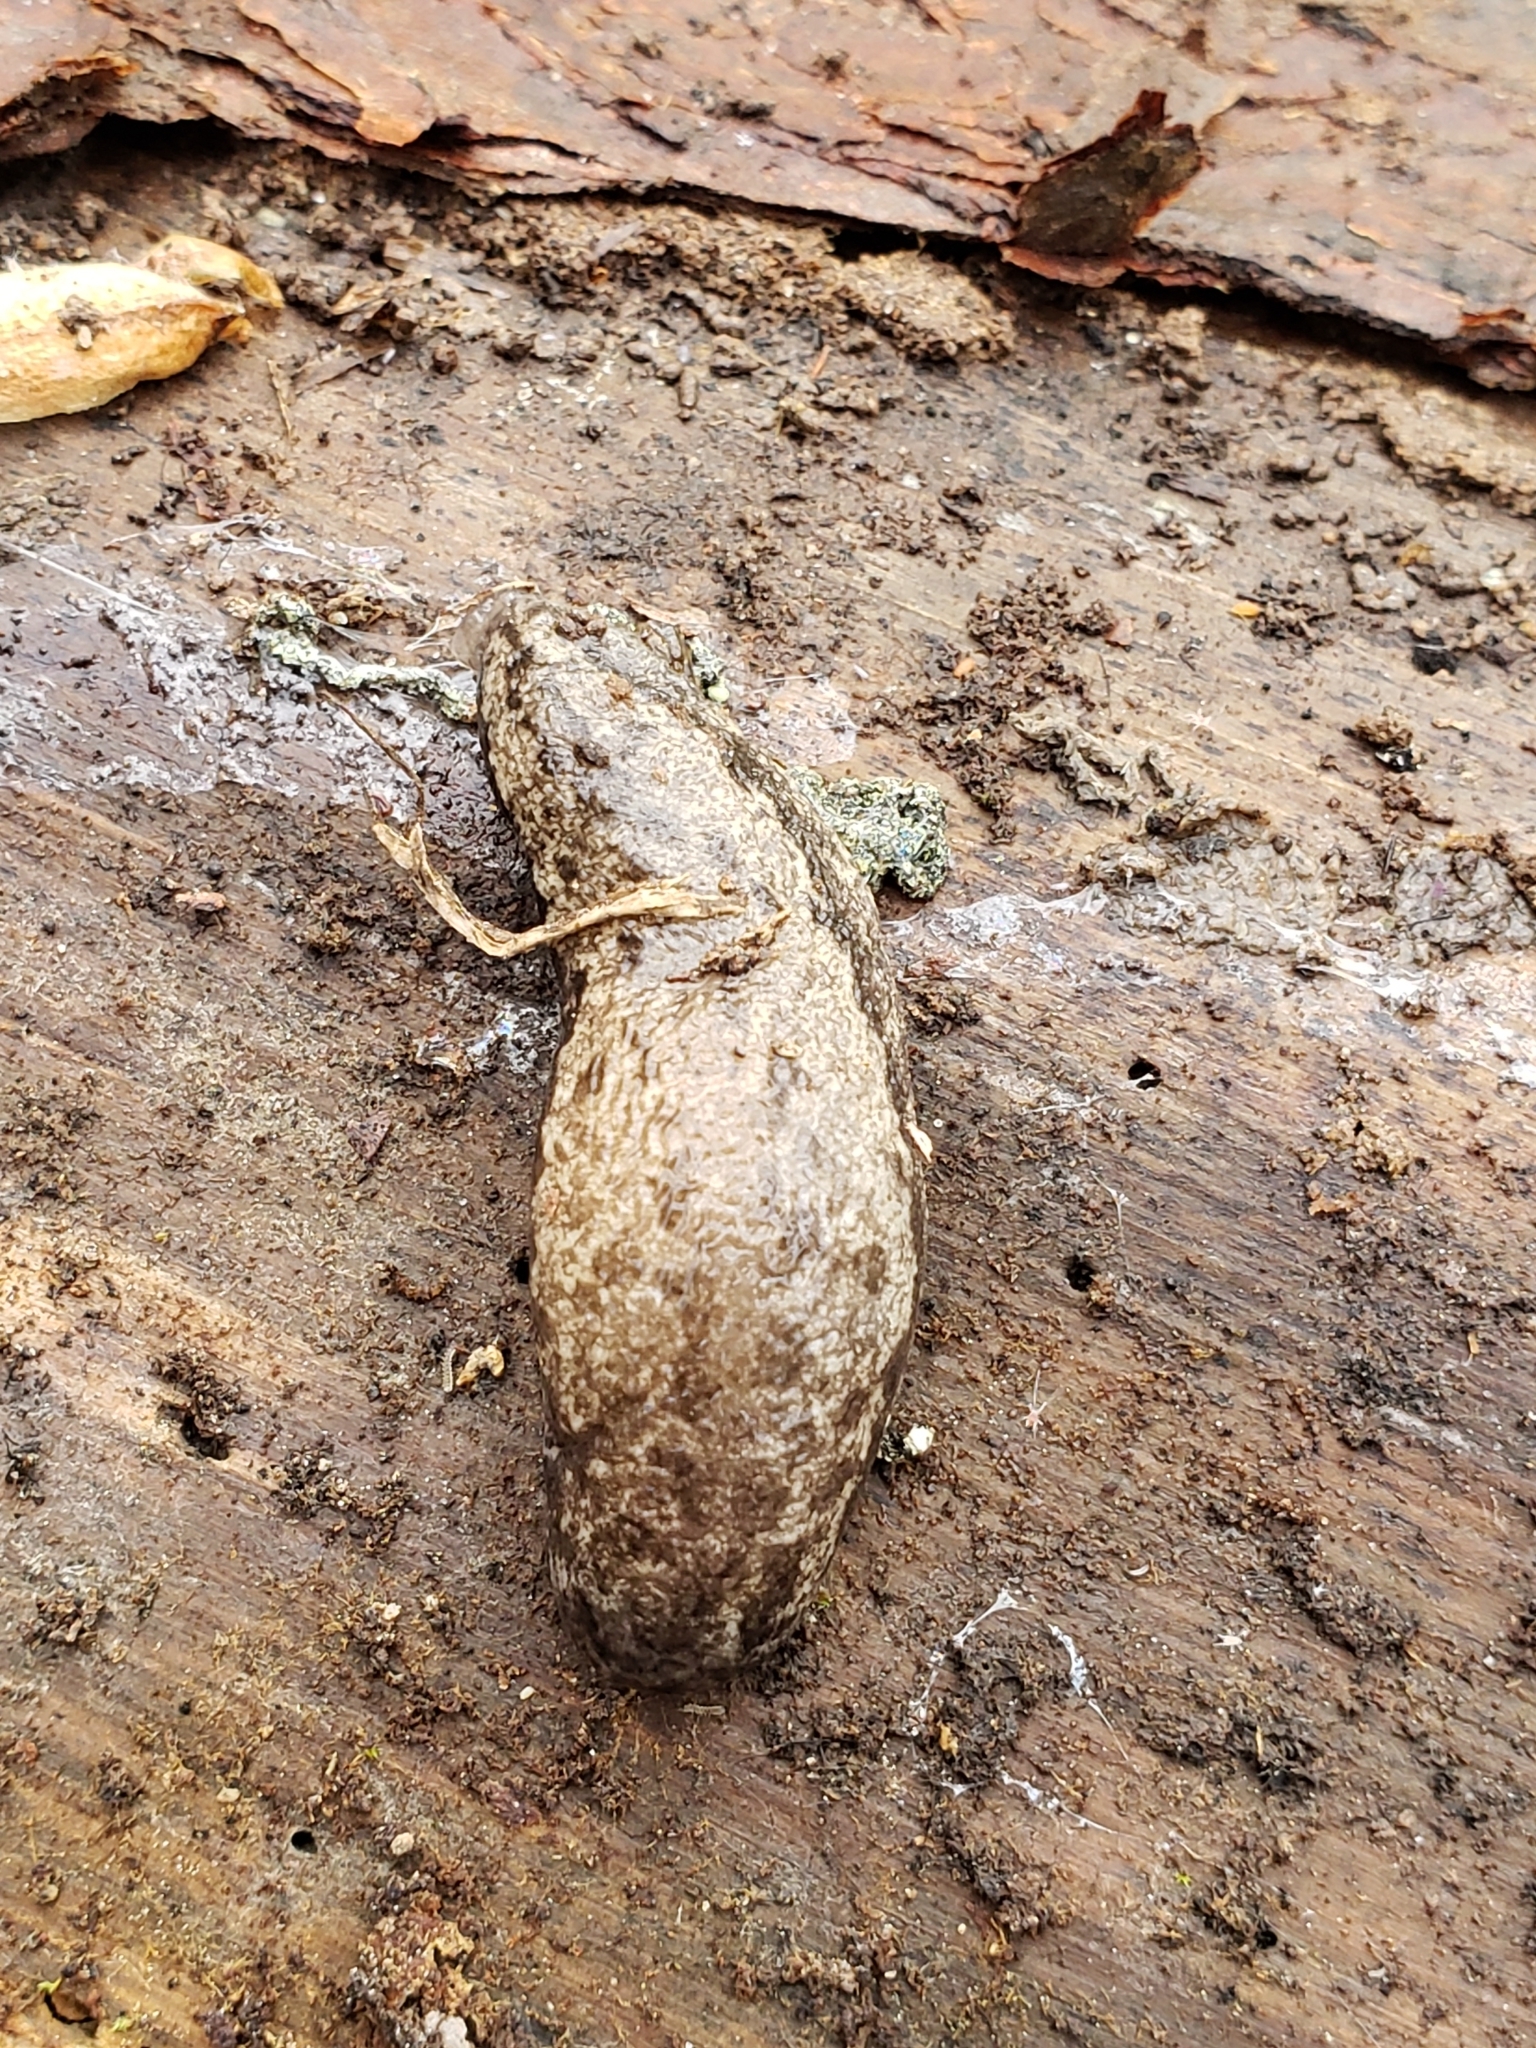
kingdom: Animalia
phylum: Mollusca
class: Gastropoda
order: Stylommatophora
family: Philomycidae
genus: Megapallifera
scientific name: Megapallifera mutabilis
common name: Changeable mantleslug
